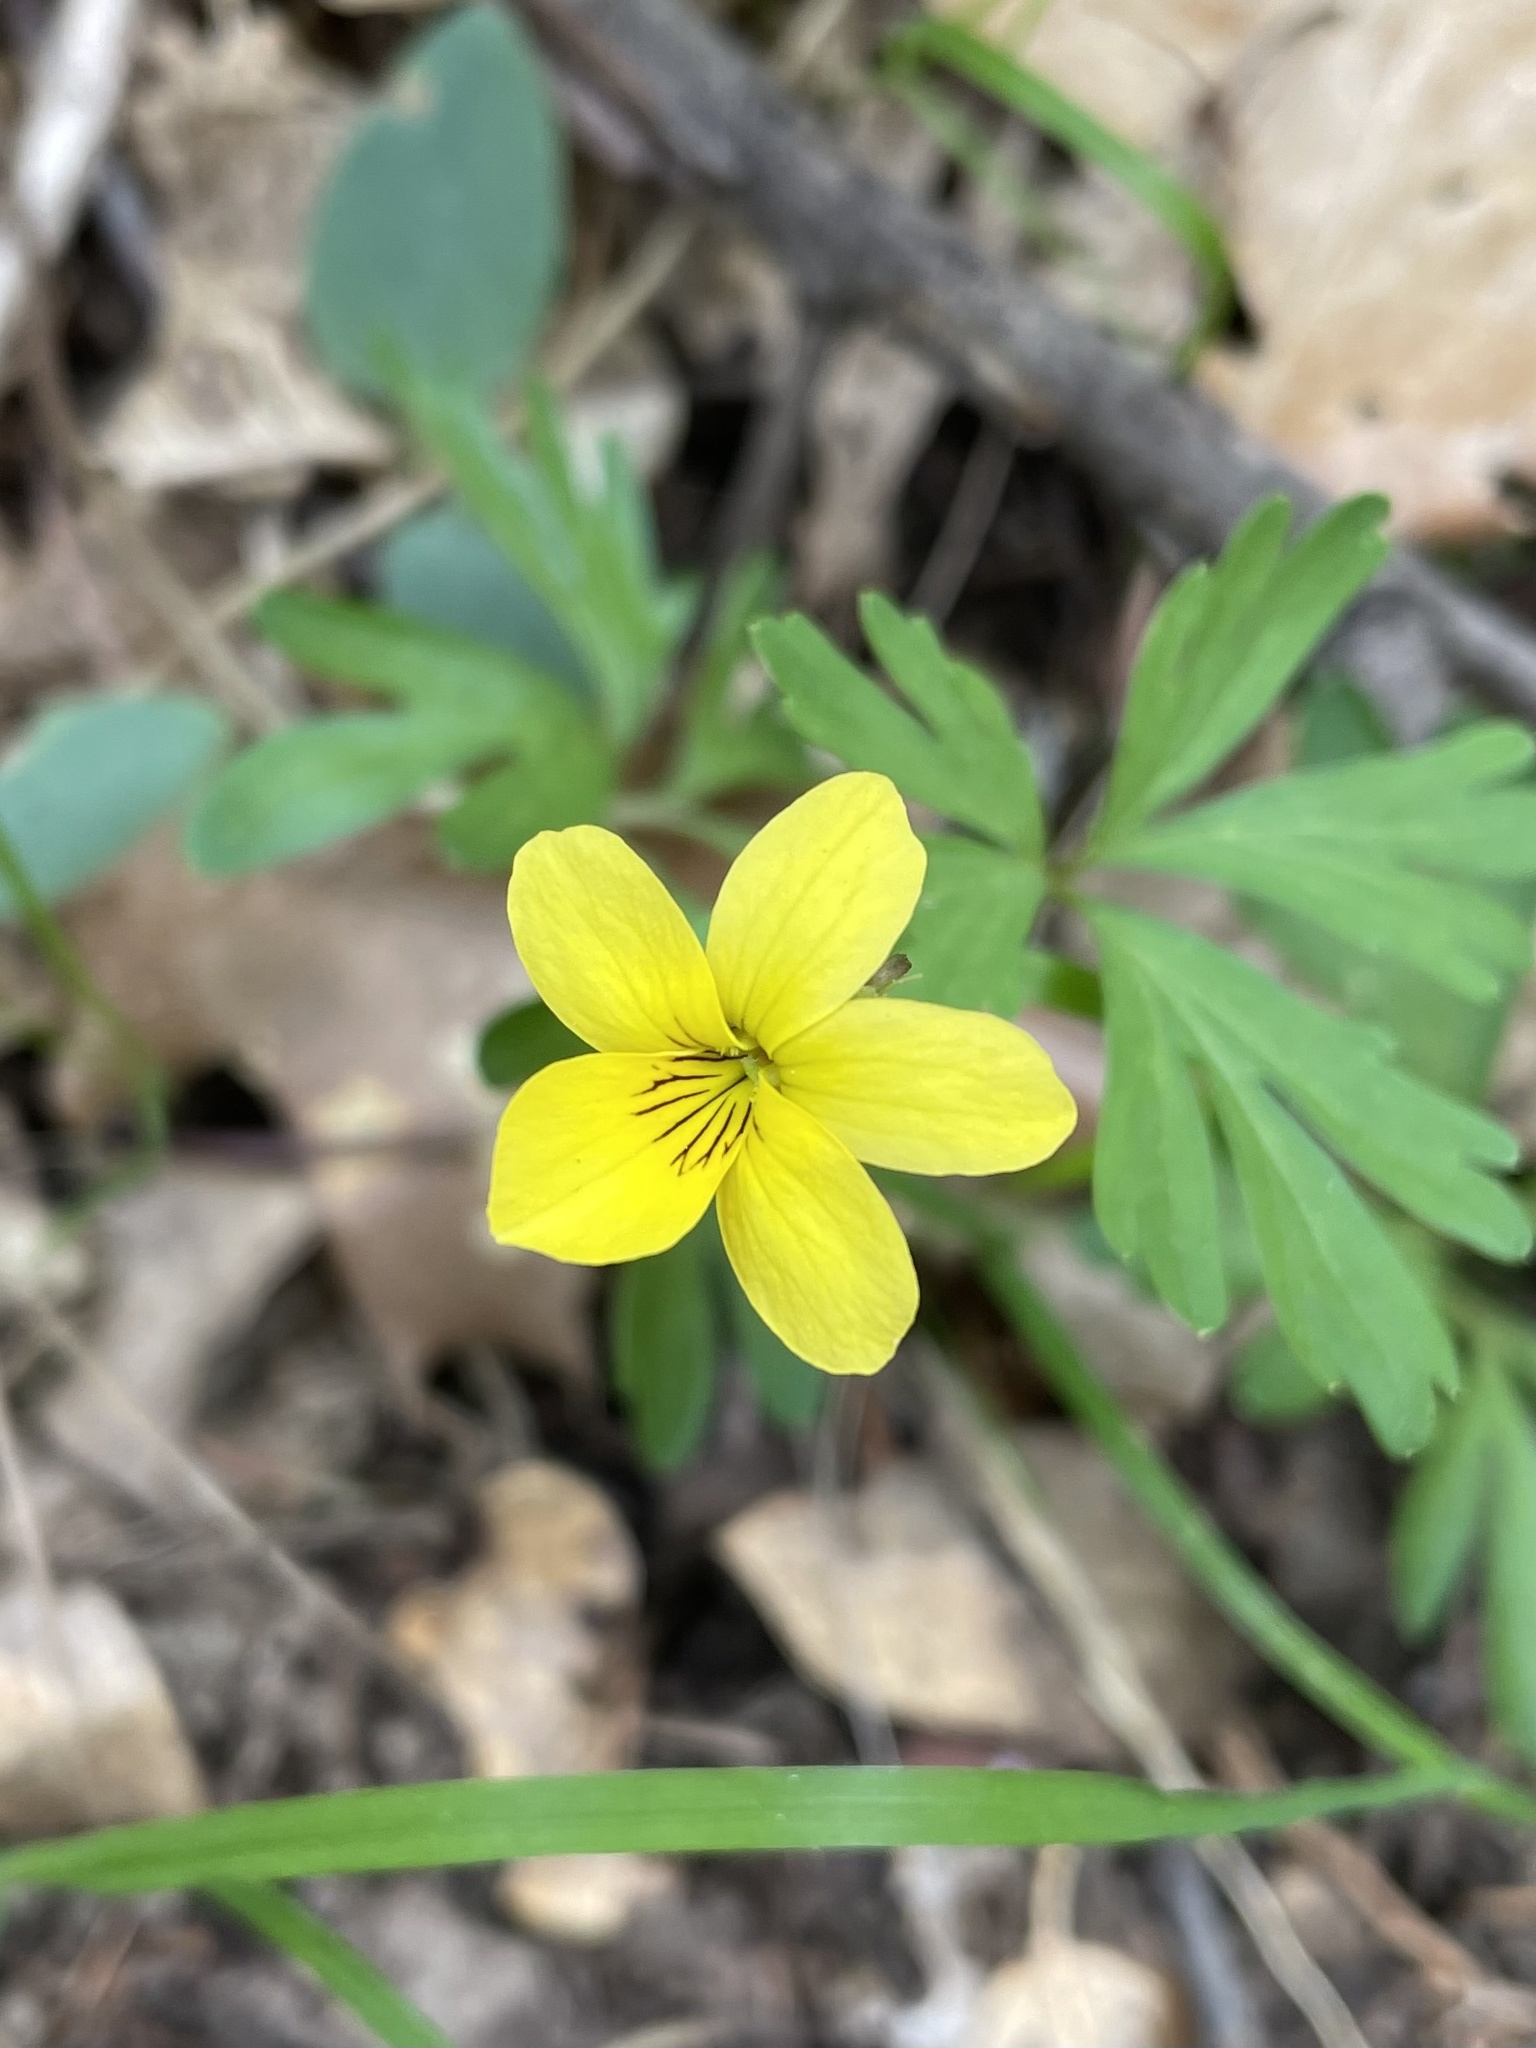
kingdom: Plantae
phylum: Tracheophyta
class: Magnoliopsida
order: Malpighiales
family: Violaceae
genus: Viola
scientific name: Viola sheltonii
